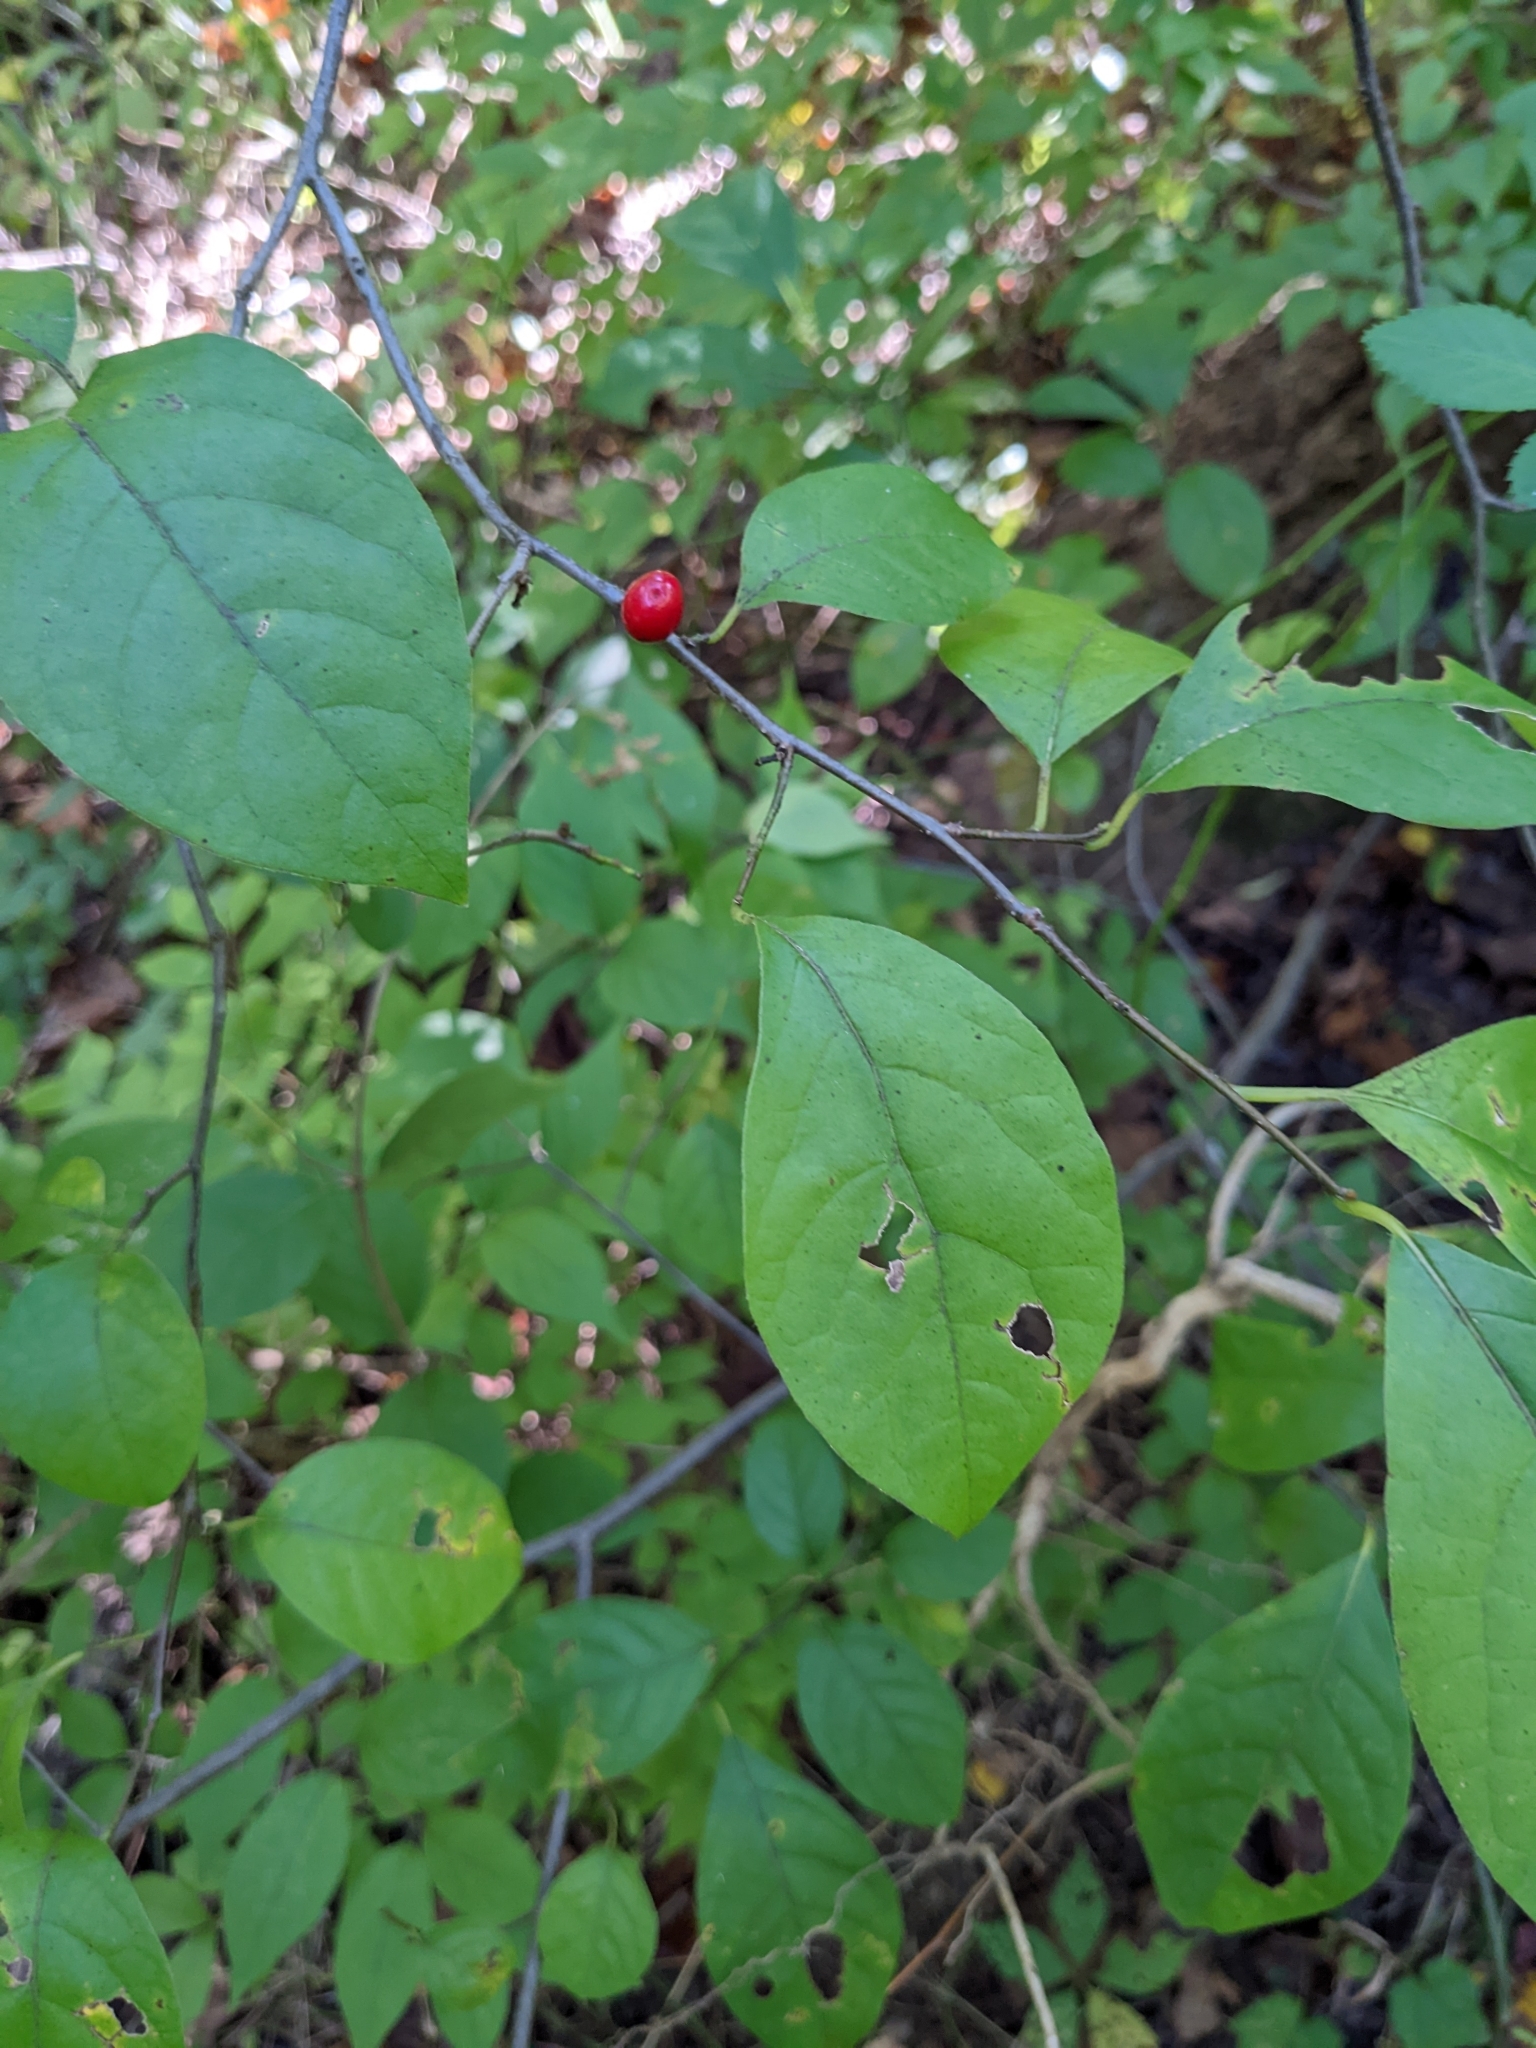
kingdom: Plantae
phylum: Tracheophyta
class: Magnoliopsida
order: Laurales
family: Lauraceae
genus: Lindera
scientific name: Lindera benzoin
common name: Spicebush
